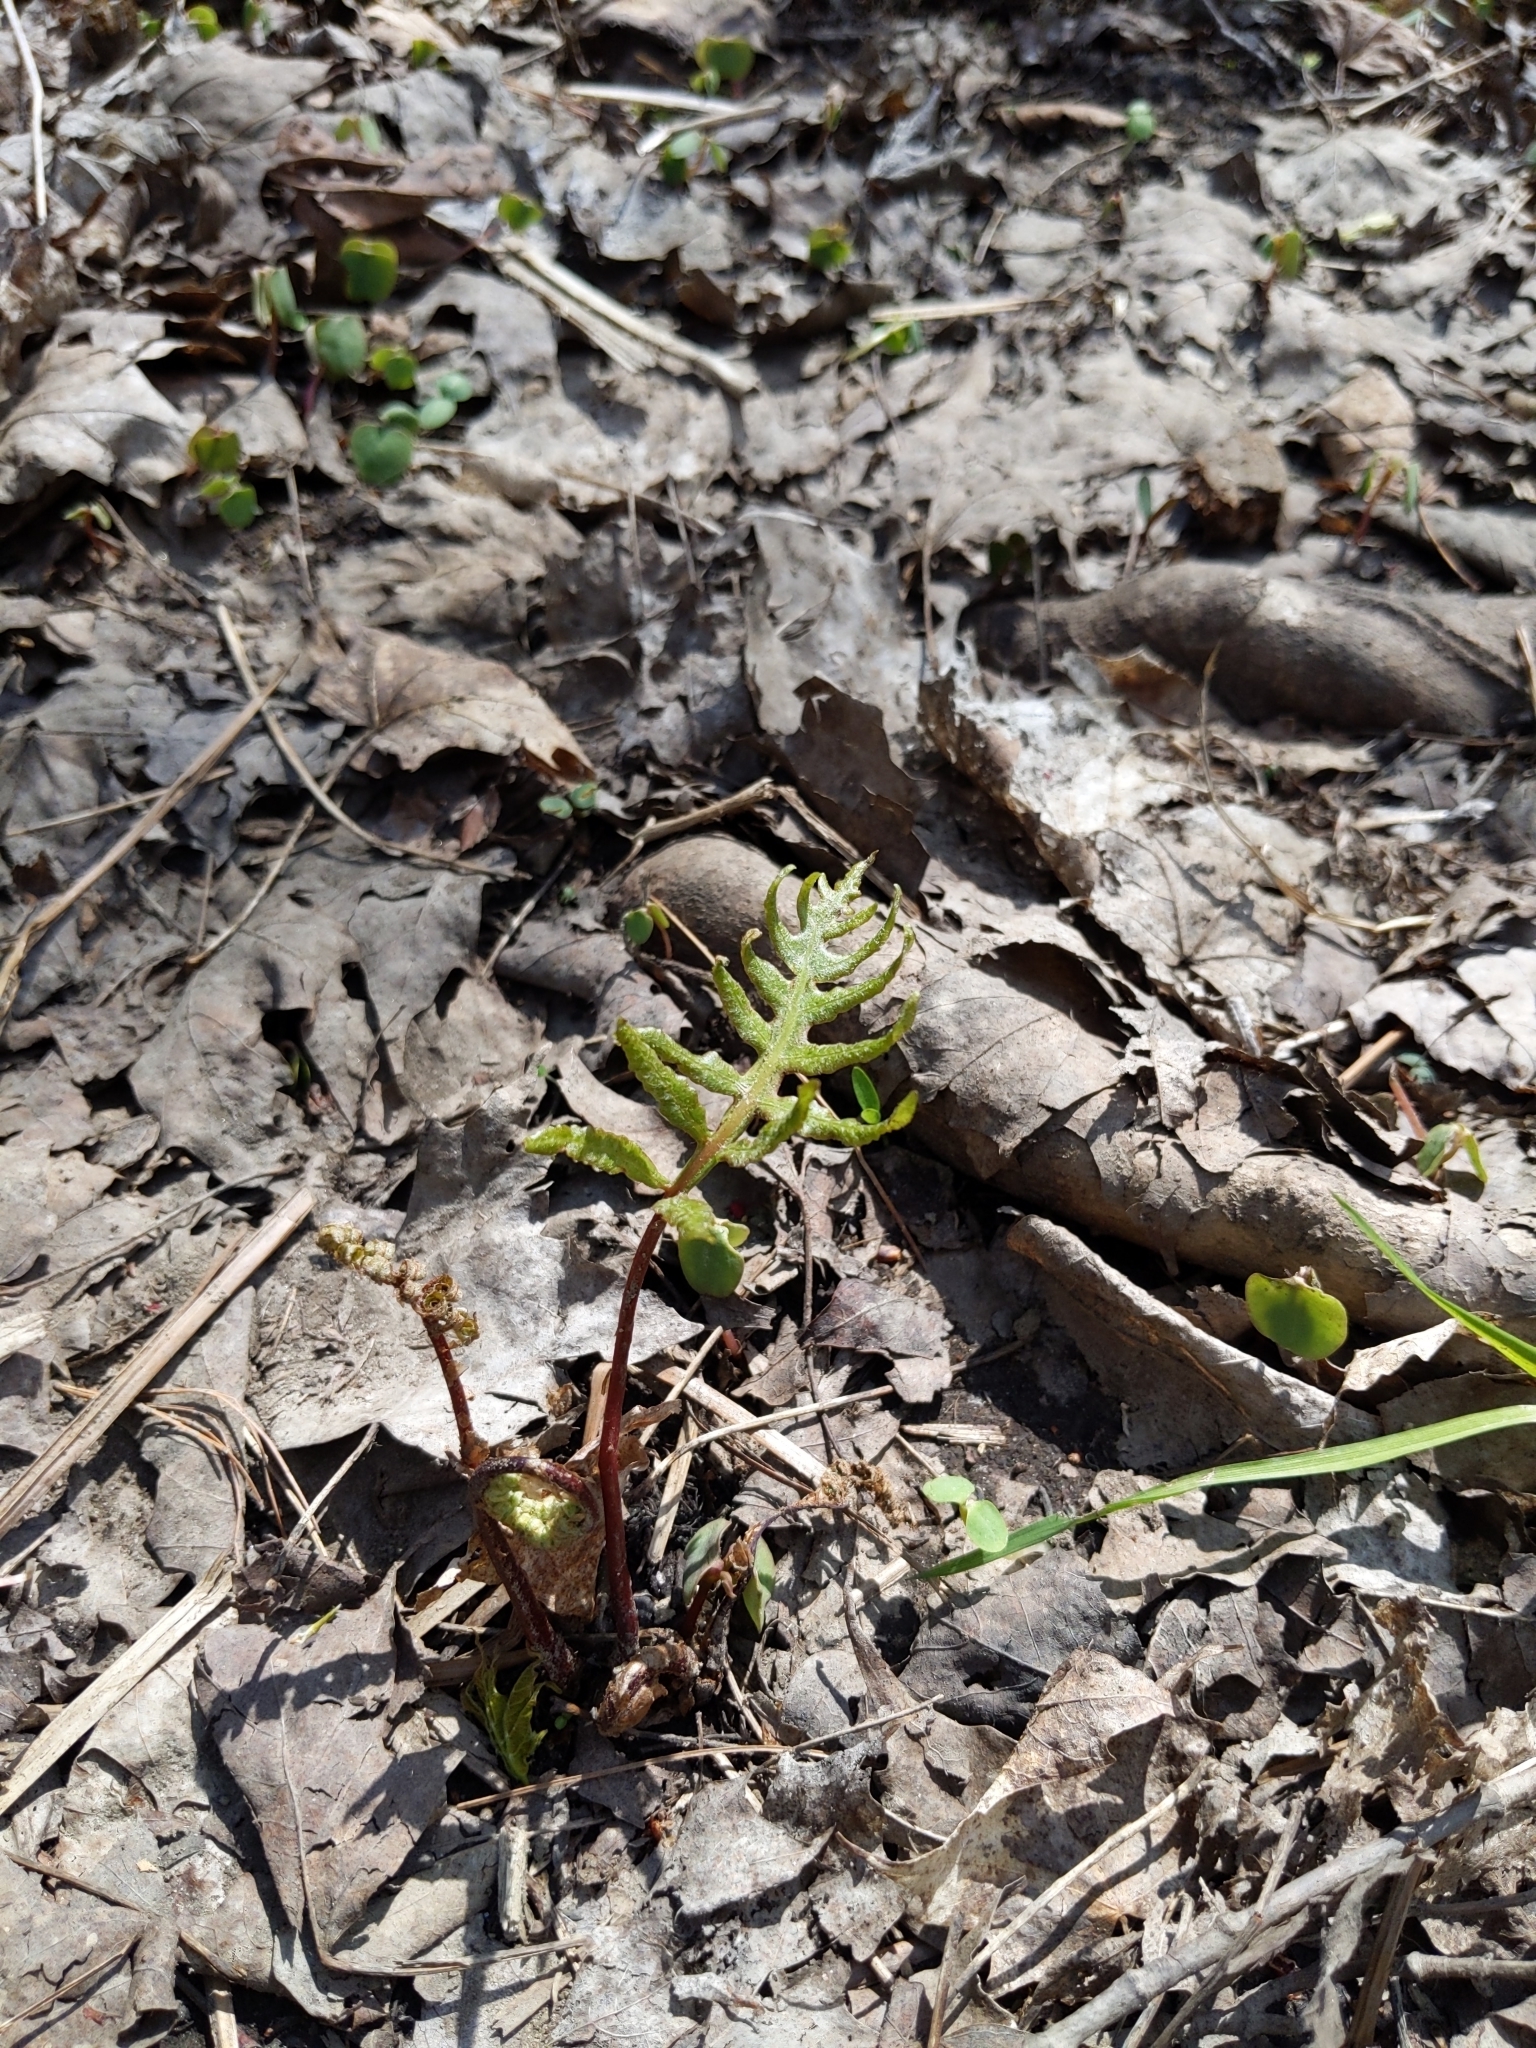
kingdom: Plantae
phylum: Tracheophyta
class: Polypodiopsida
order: Polypodiales
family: Onocleaceae
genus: Onoclea
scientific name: Onoclea sensibilis
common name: Sensitive fern
